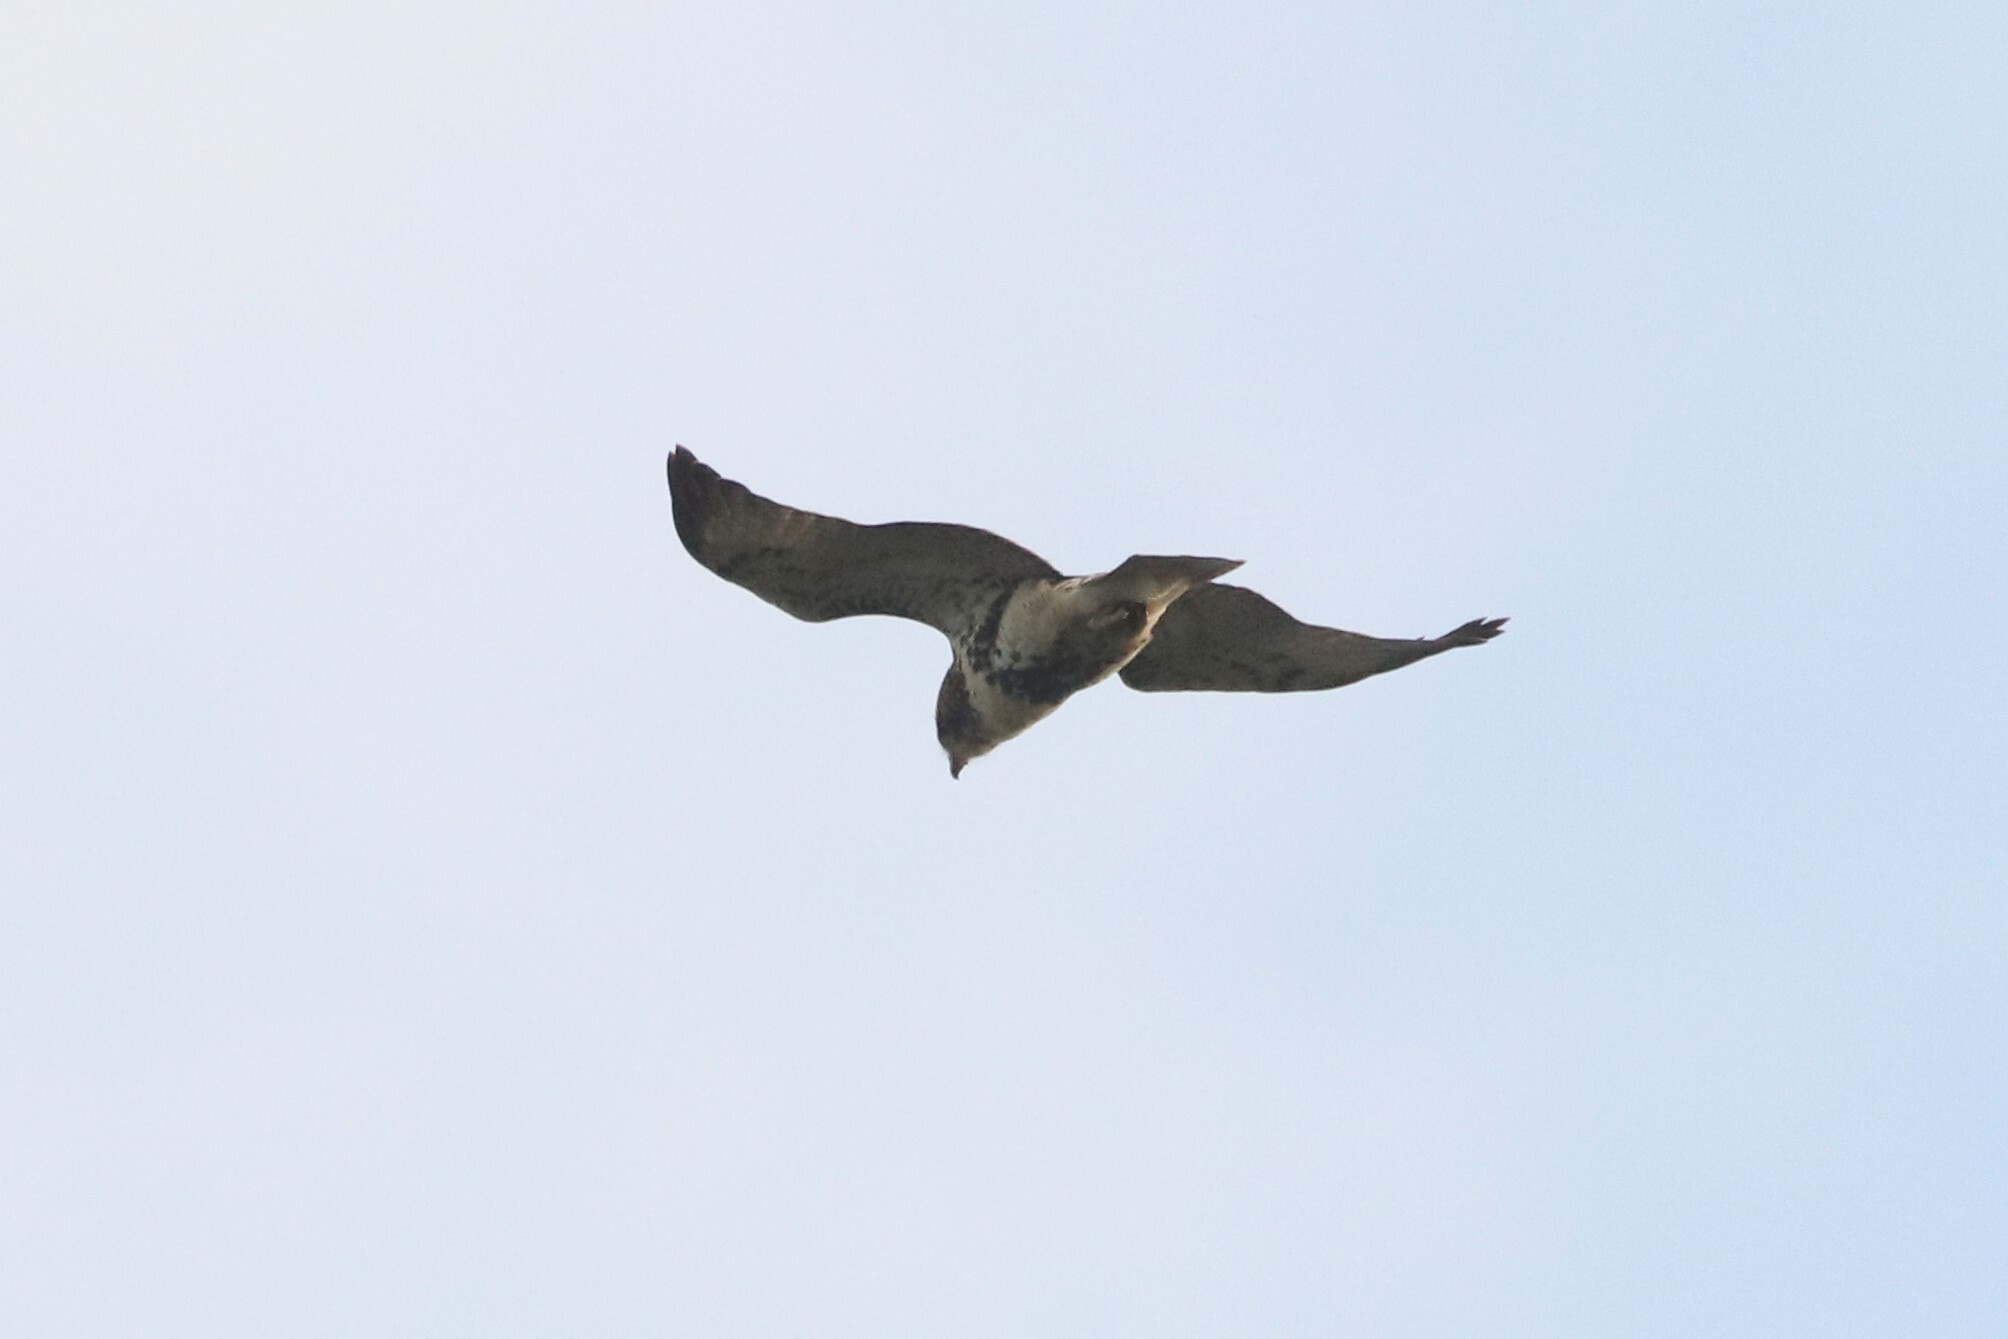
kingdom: Animalia
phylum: Chordata
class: Aves
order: Accipitriformes
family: Accipitridae
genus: Buteo
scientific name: Buteo jamaicensis
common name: Red-tailed hawk
